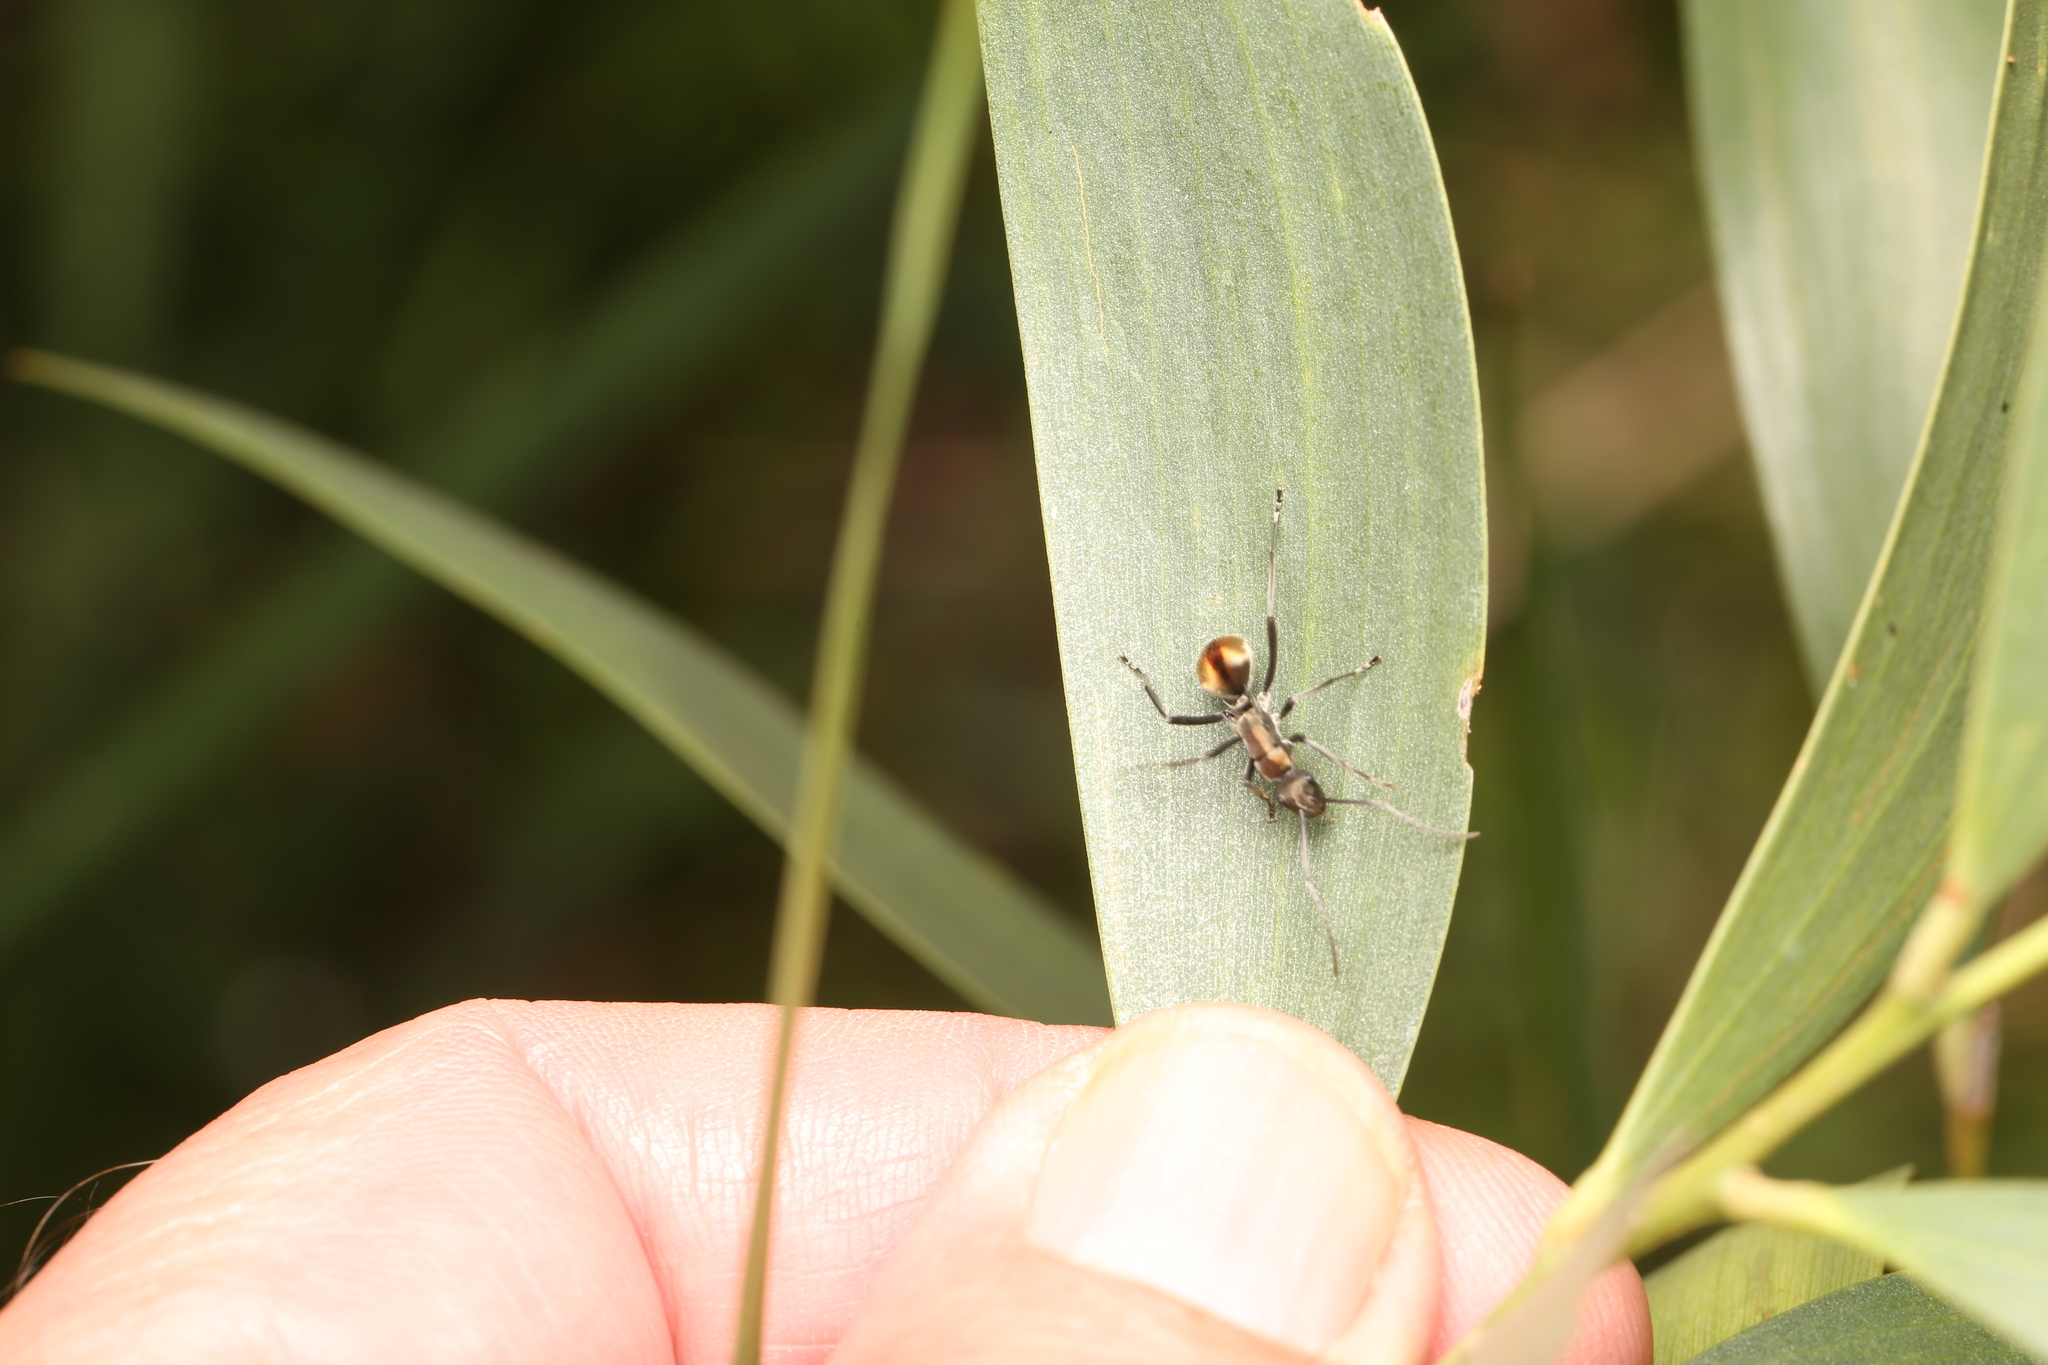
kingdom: Animalia
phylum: Arthropoda
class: Insecta
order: Hymenoptera
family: Formicidae
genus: Polyrhachis
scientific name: Polyrhachis
